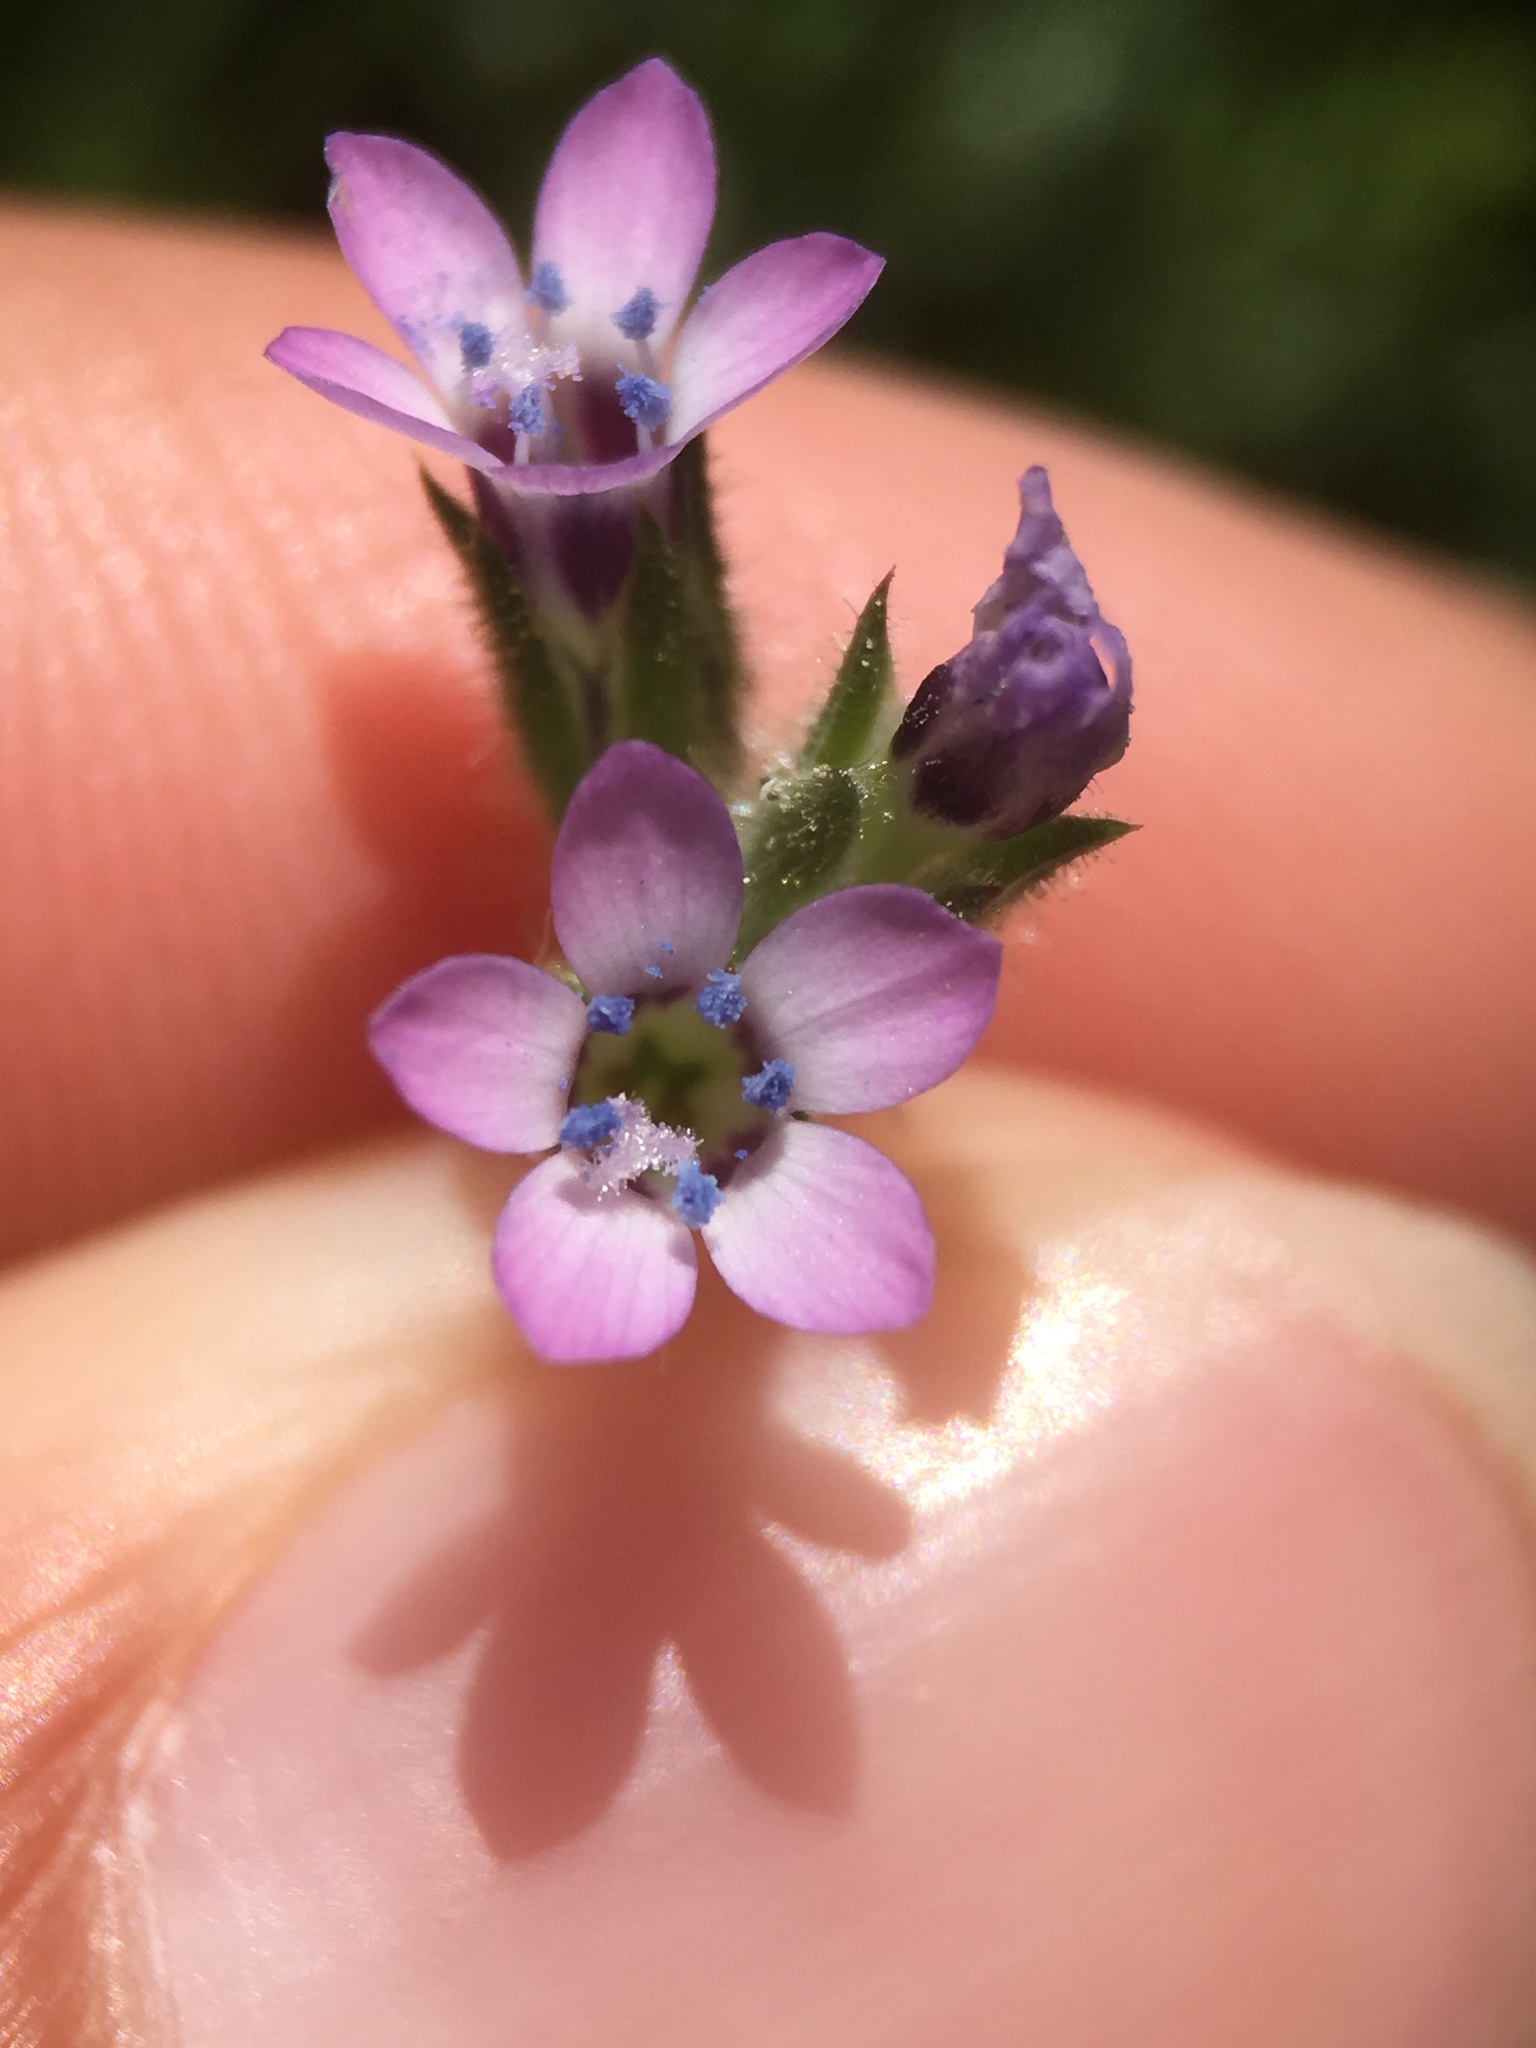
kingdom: Plantae
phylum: Tracheophyta
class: Magnoliopsida
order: Ericales
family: Polemoniaceae
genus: Gilia
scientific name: Gilia clivorum
